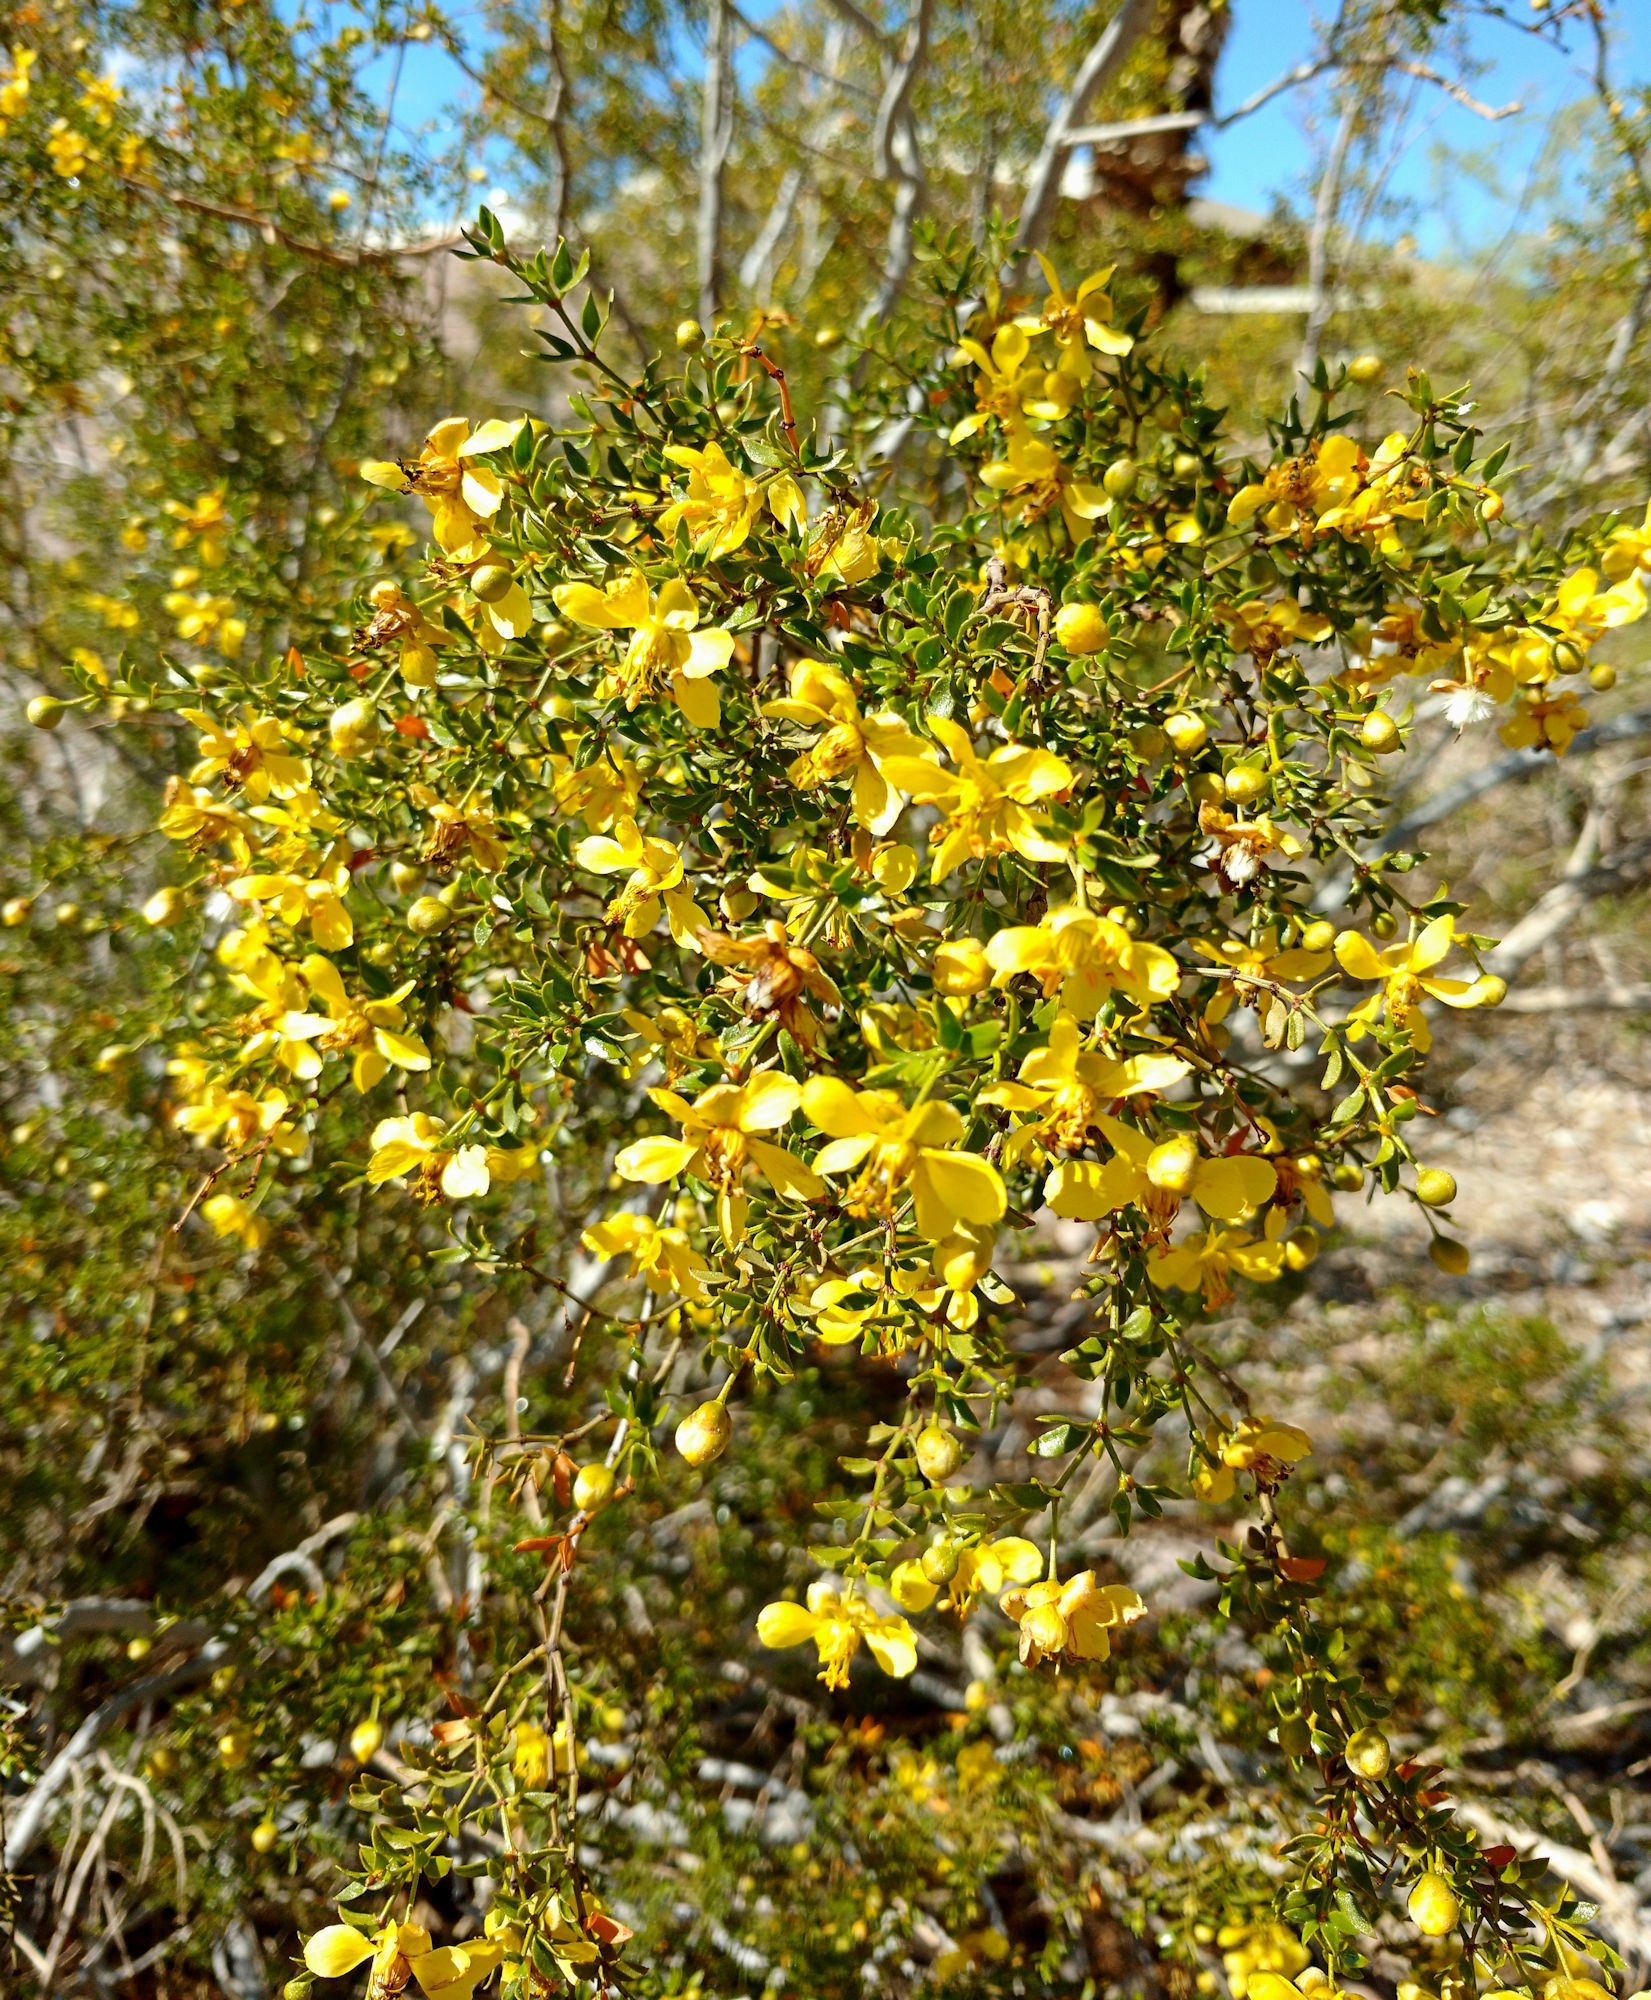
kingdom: Plantae
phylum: Tracheophyta
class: Magnoliopsida
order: Zygophyllales
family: Zygophyllaceae
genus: Larrea
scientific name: Larrea tridentata
